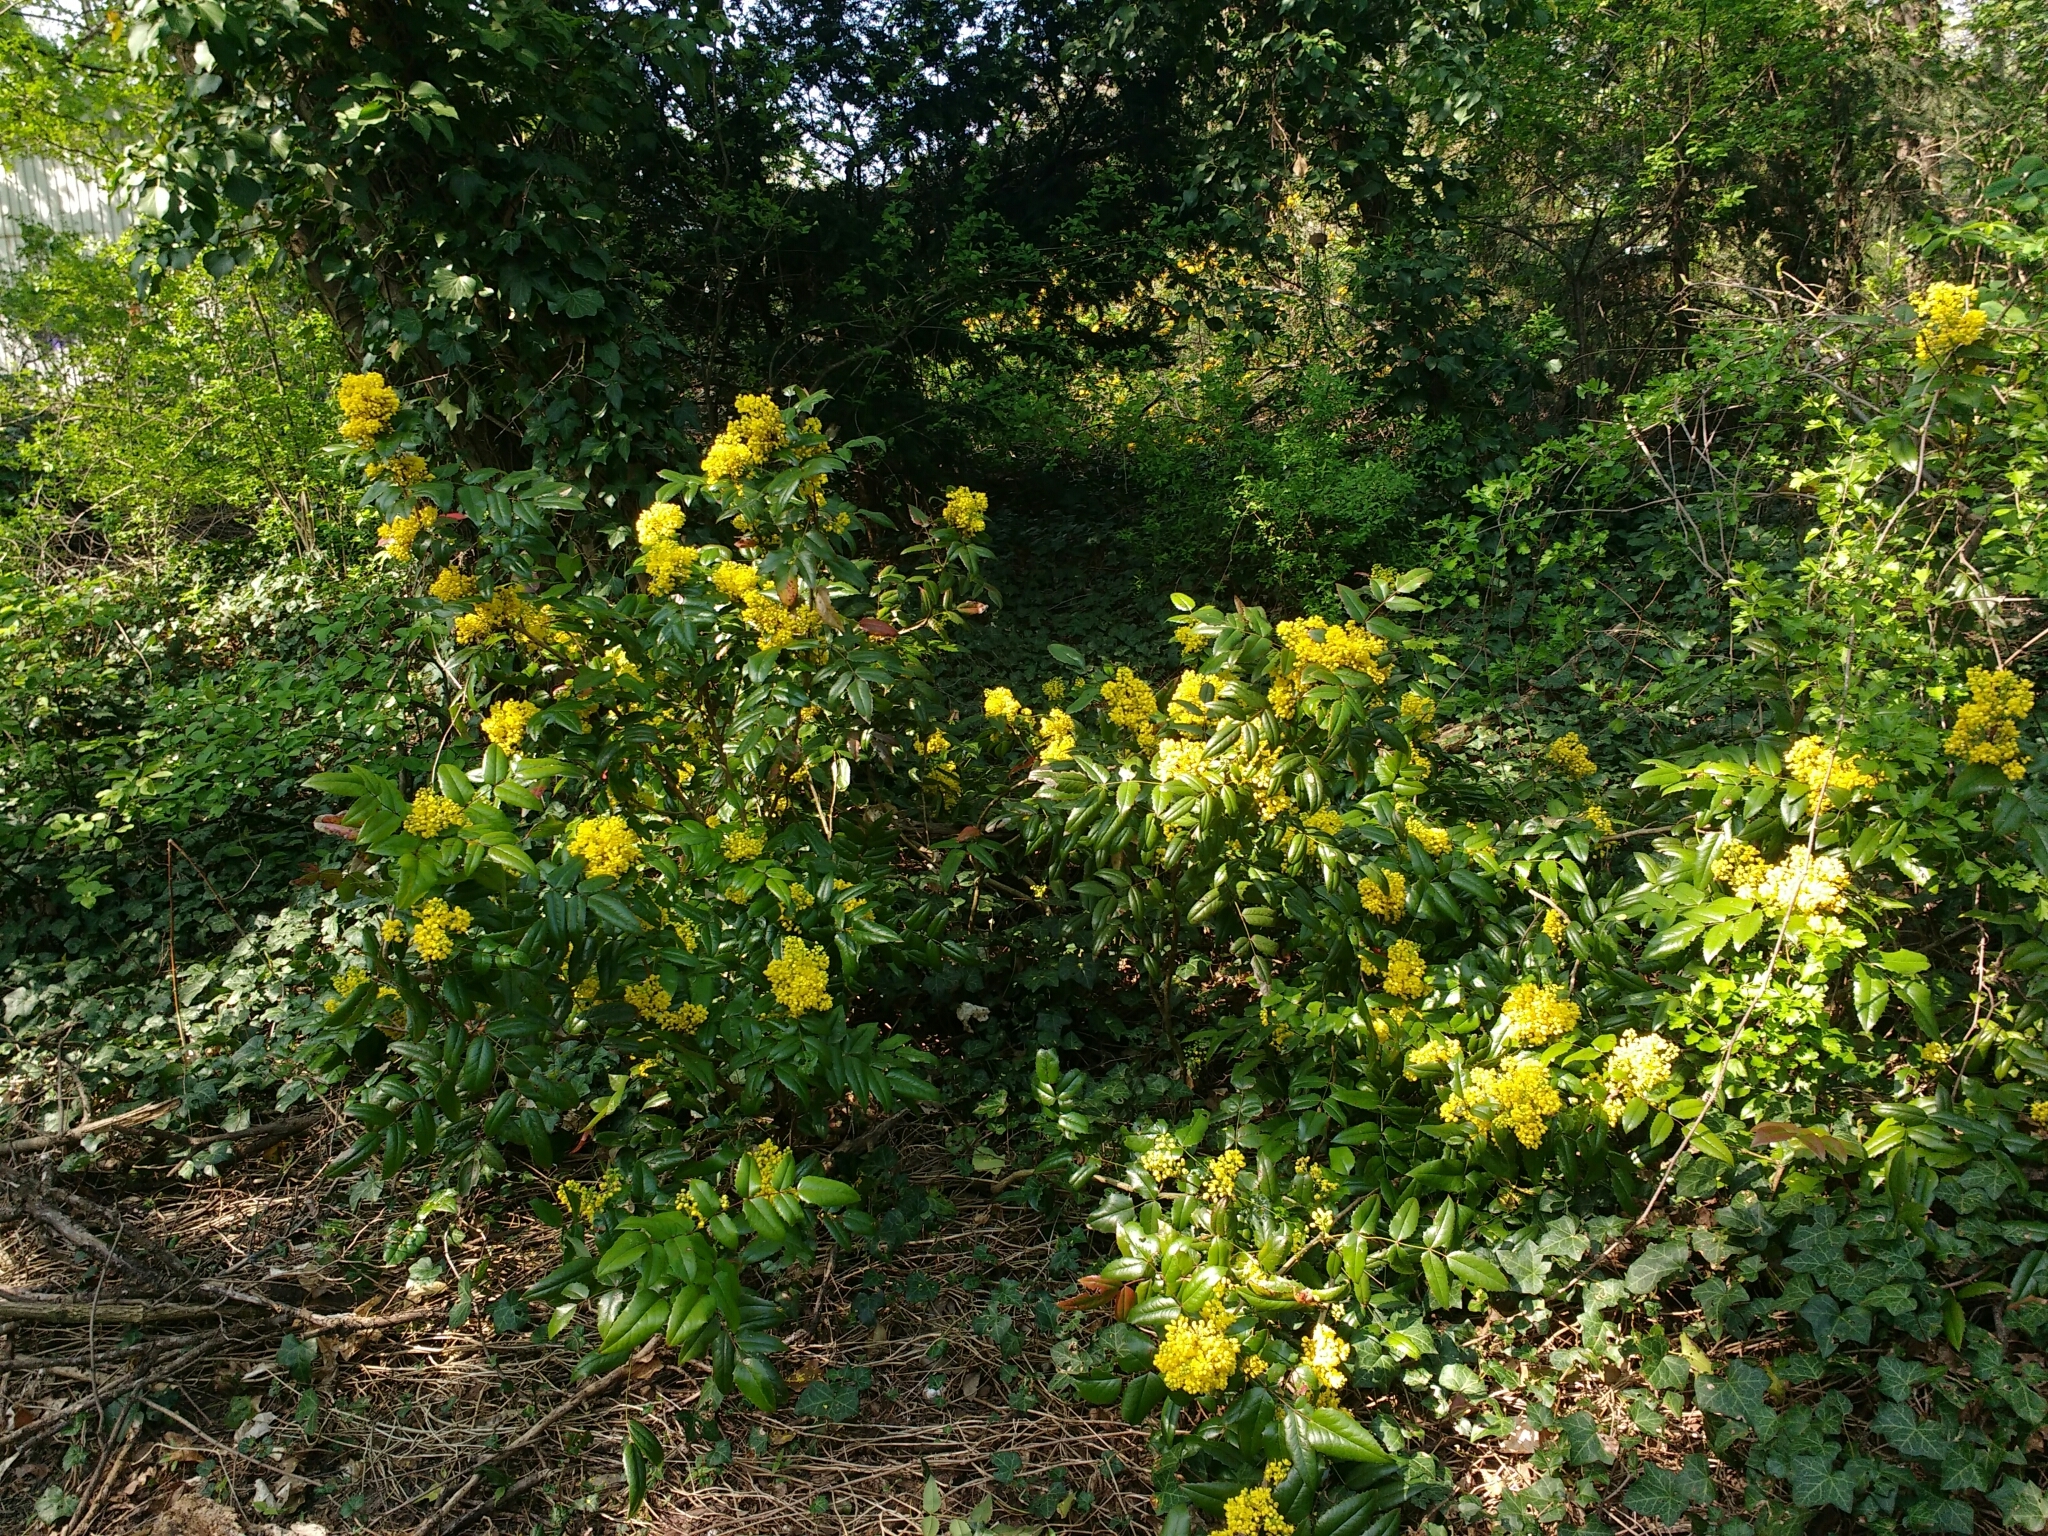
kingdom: Plantae
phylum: Tracheophyta
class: Magnoliopsida
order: Ranunculales
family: Berberidaceae
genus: Mahonia
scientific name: Mahonia aquifolium
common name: Oregon-grape
